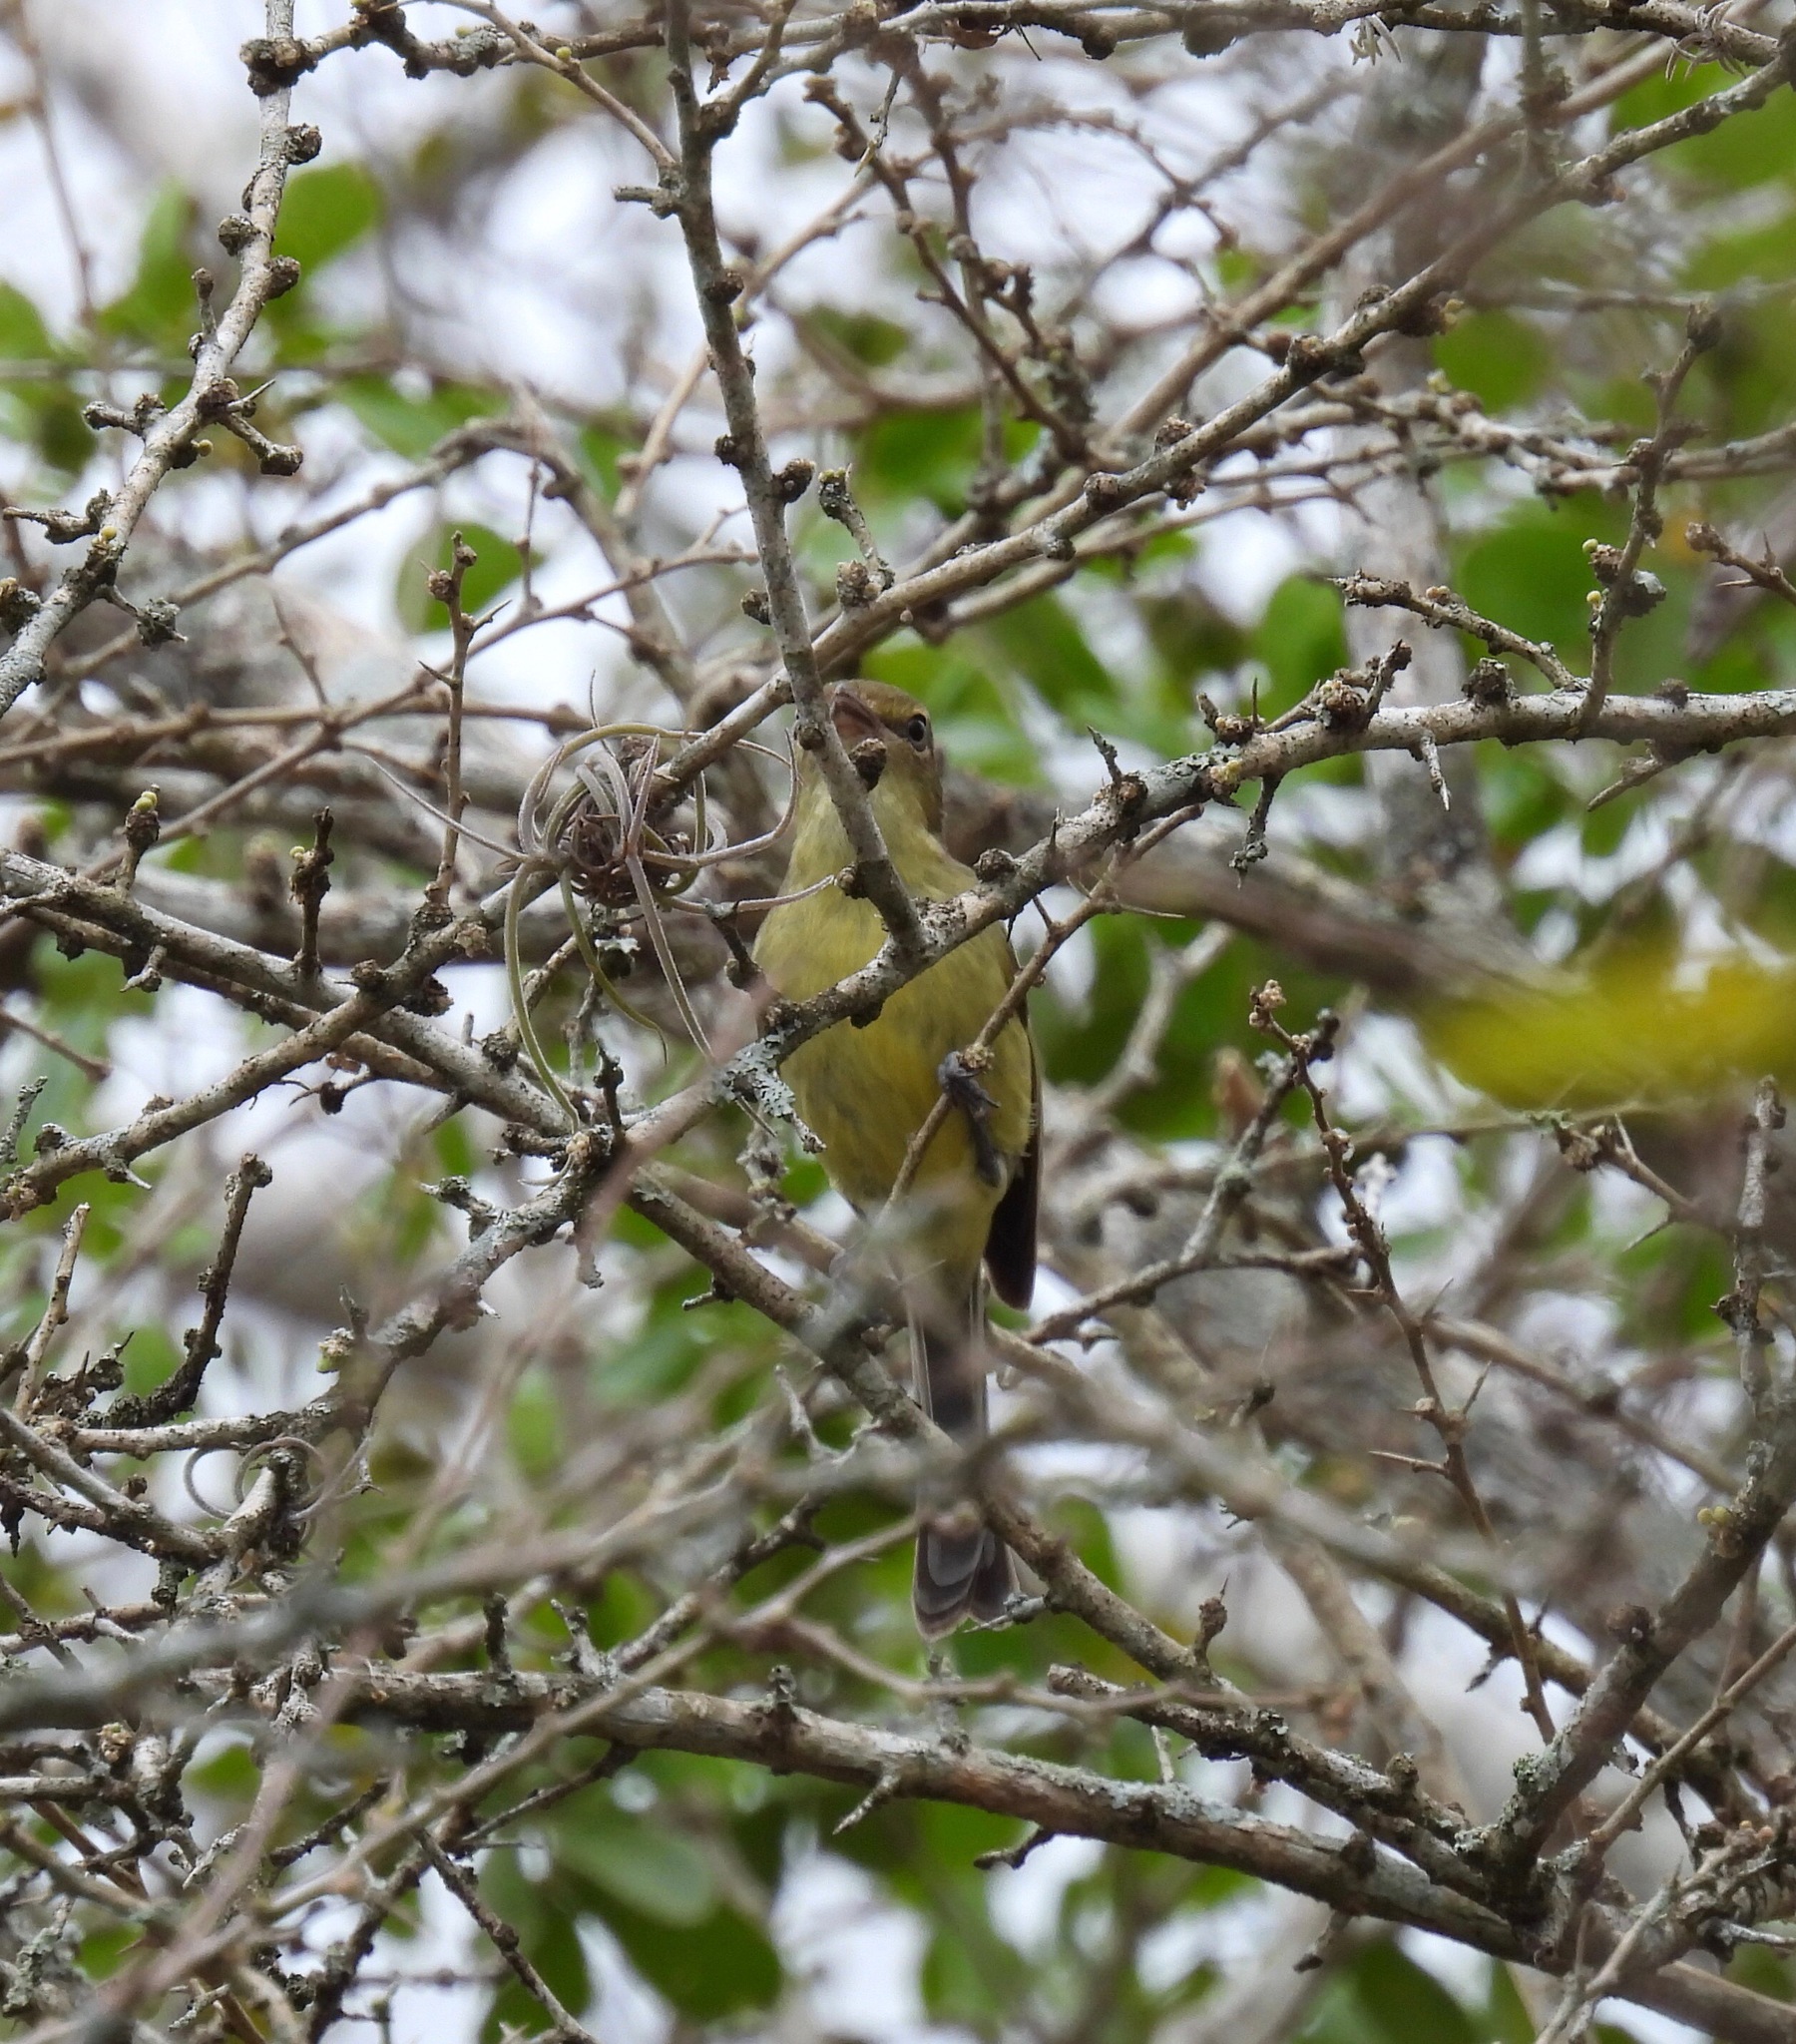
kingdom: Animalia
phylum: Chordata
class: Aves
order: Passeriformes
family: Vireonidae
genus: Vireo
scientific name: Vireo nanus
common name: Flat-billed vireo
